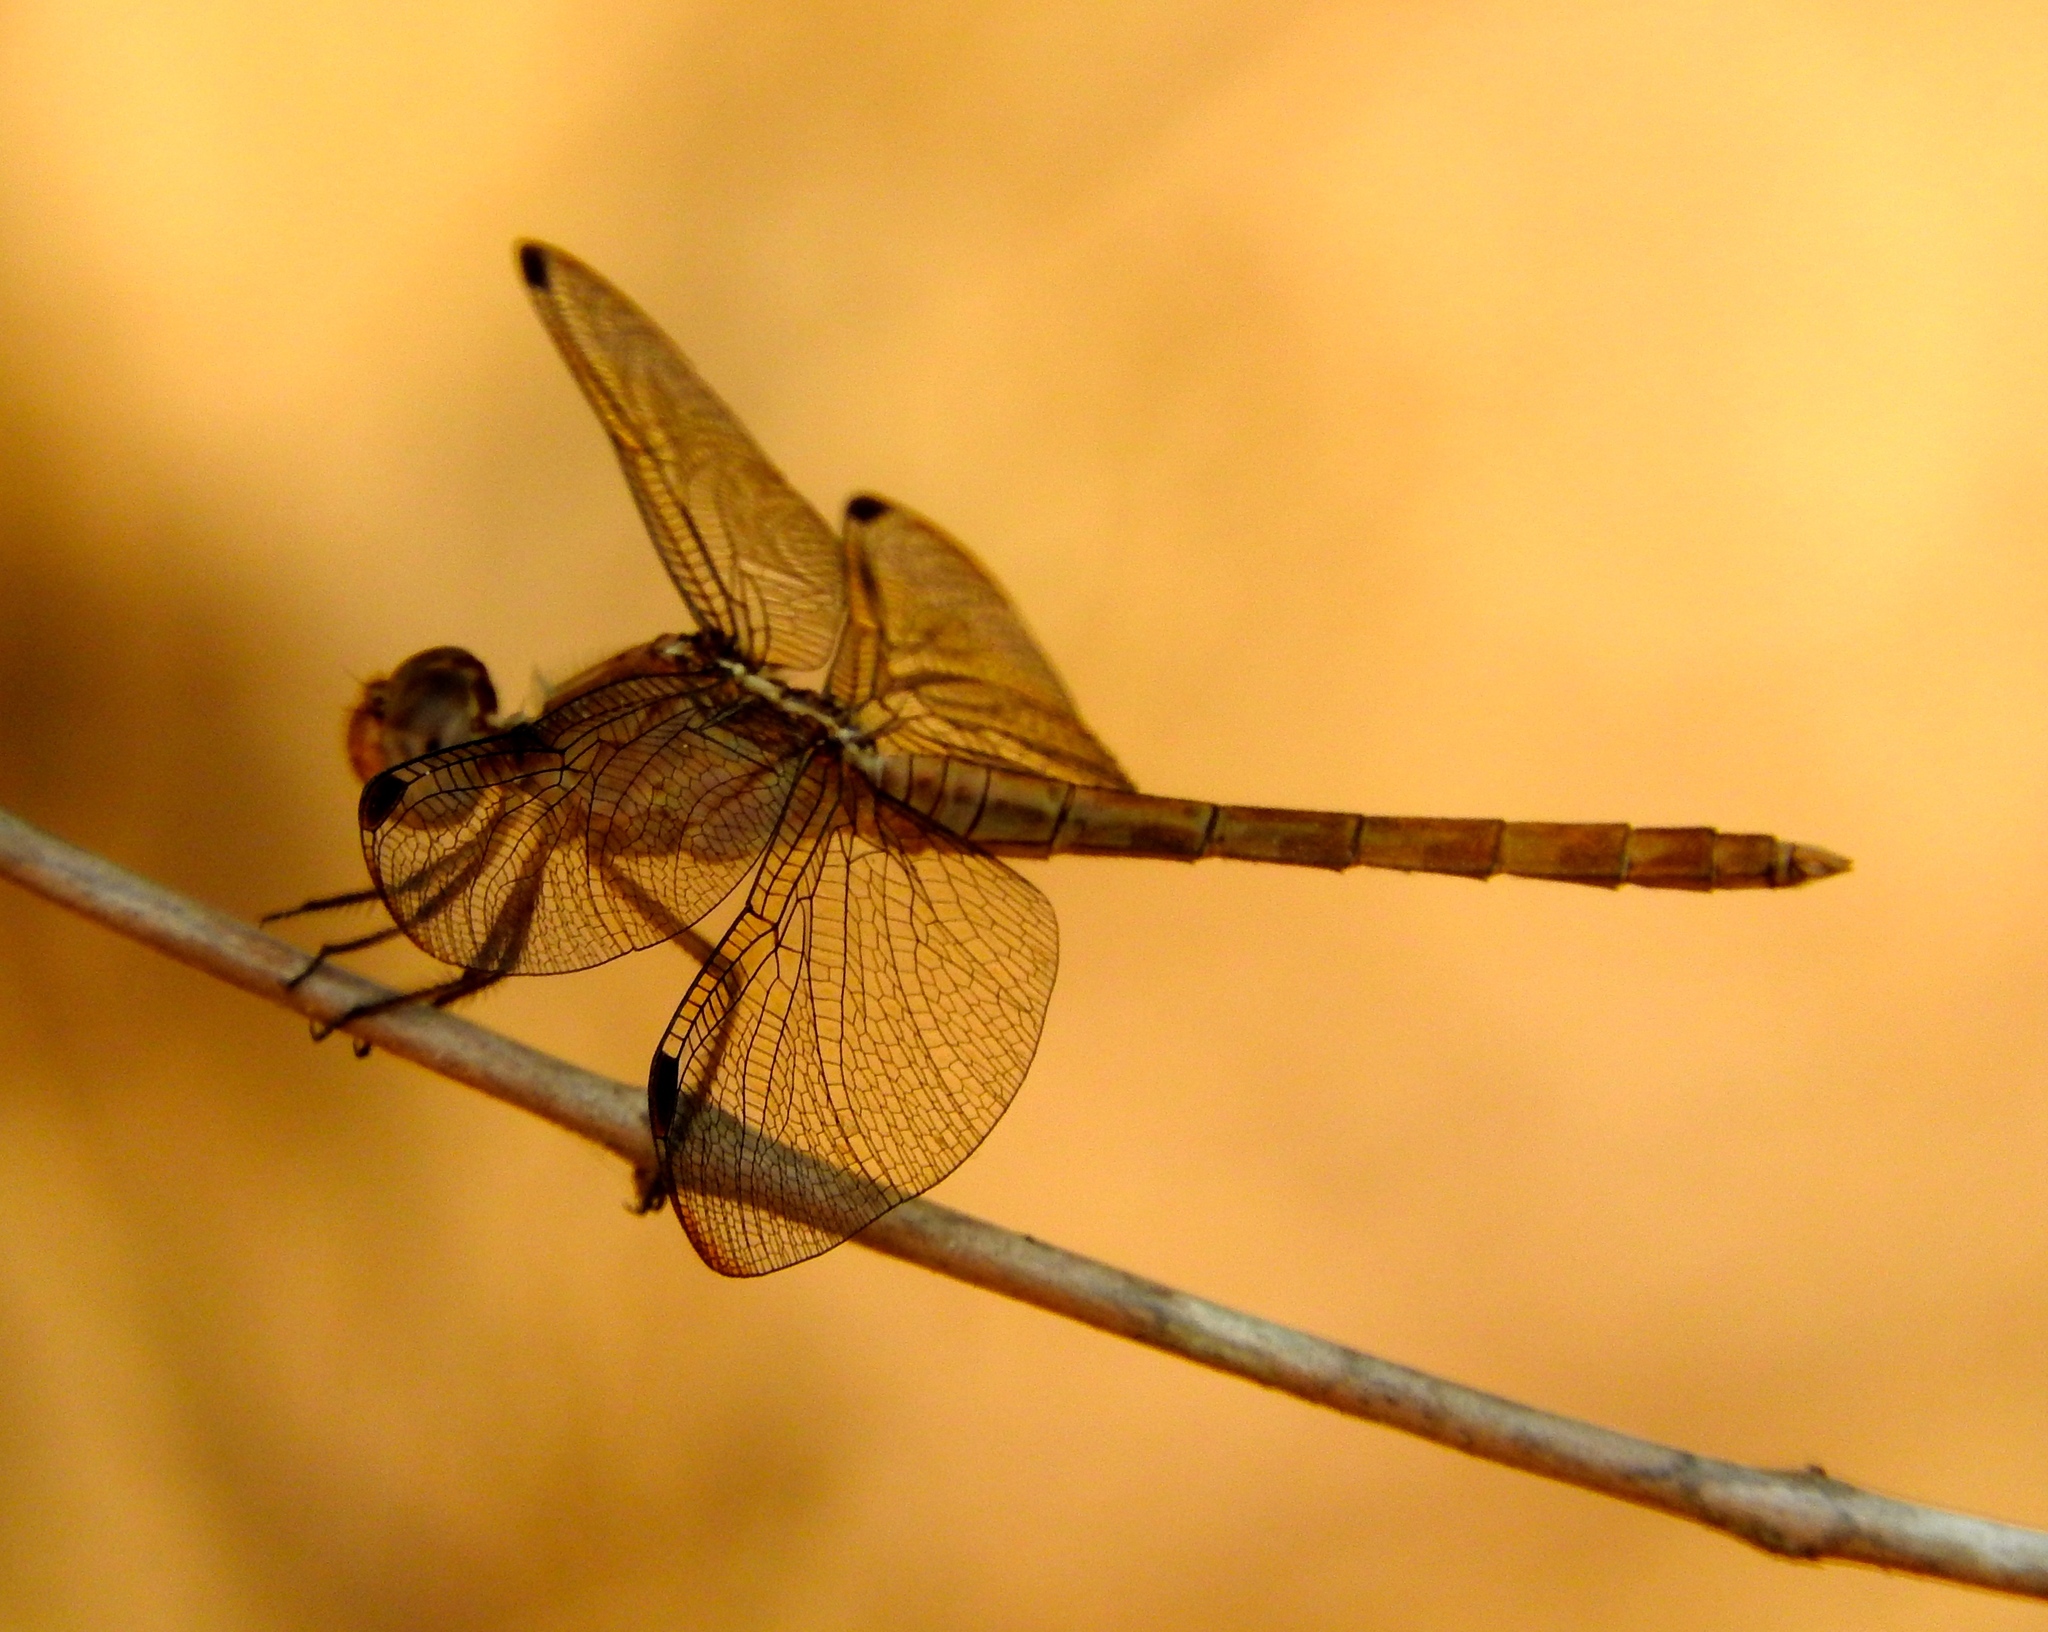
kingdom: Animalia
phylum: Arthropoda
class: Insecta
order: Odonata
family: Libellulidae
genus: Erythrodiplax
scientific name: Erythrodiplax funerea
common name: Black-winged dragonlet
